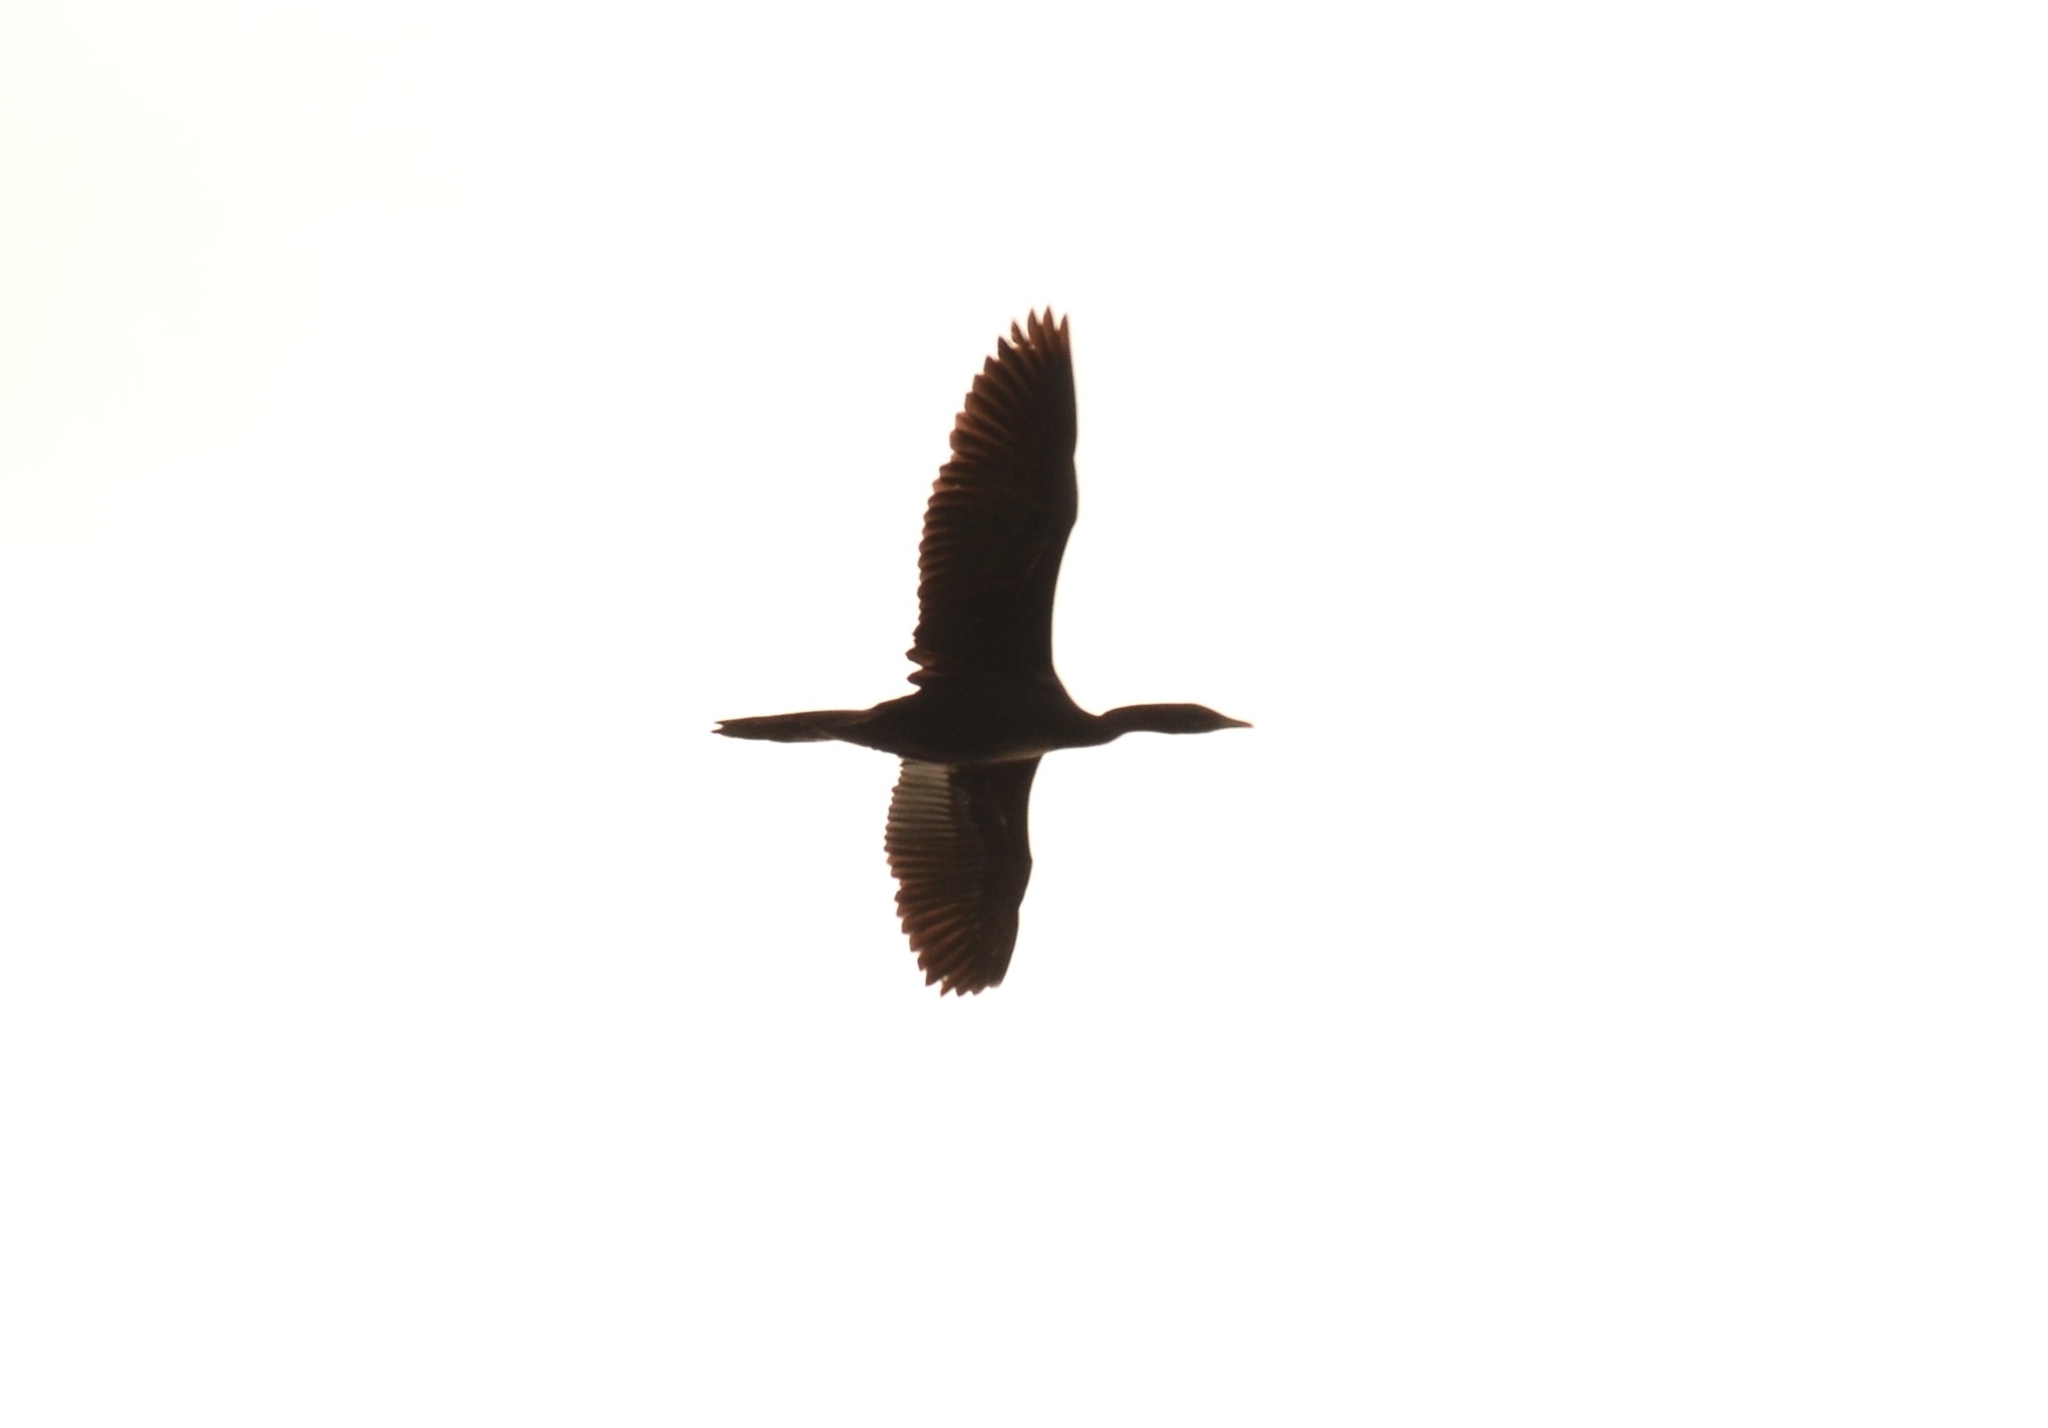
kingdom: Animalia
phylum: Chordata
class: Aves
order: Suliformes
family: Phalacrocoracidae
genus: Microcarbo
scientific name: Microcarbo niger
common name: Little cormorant
